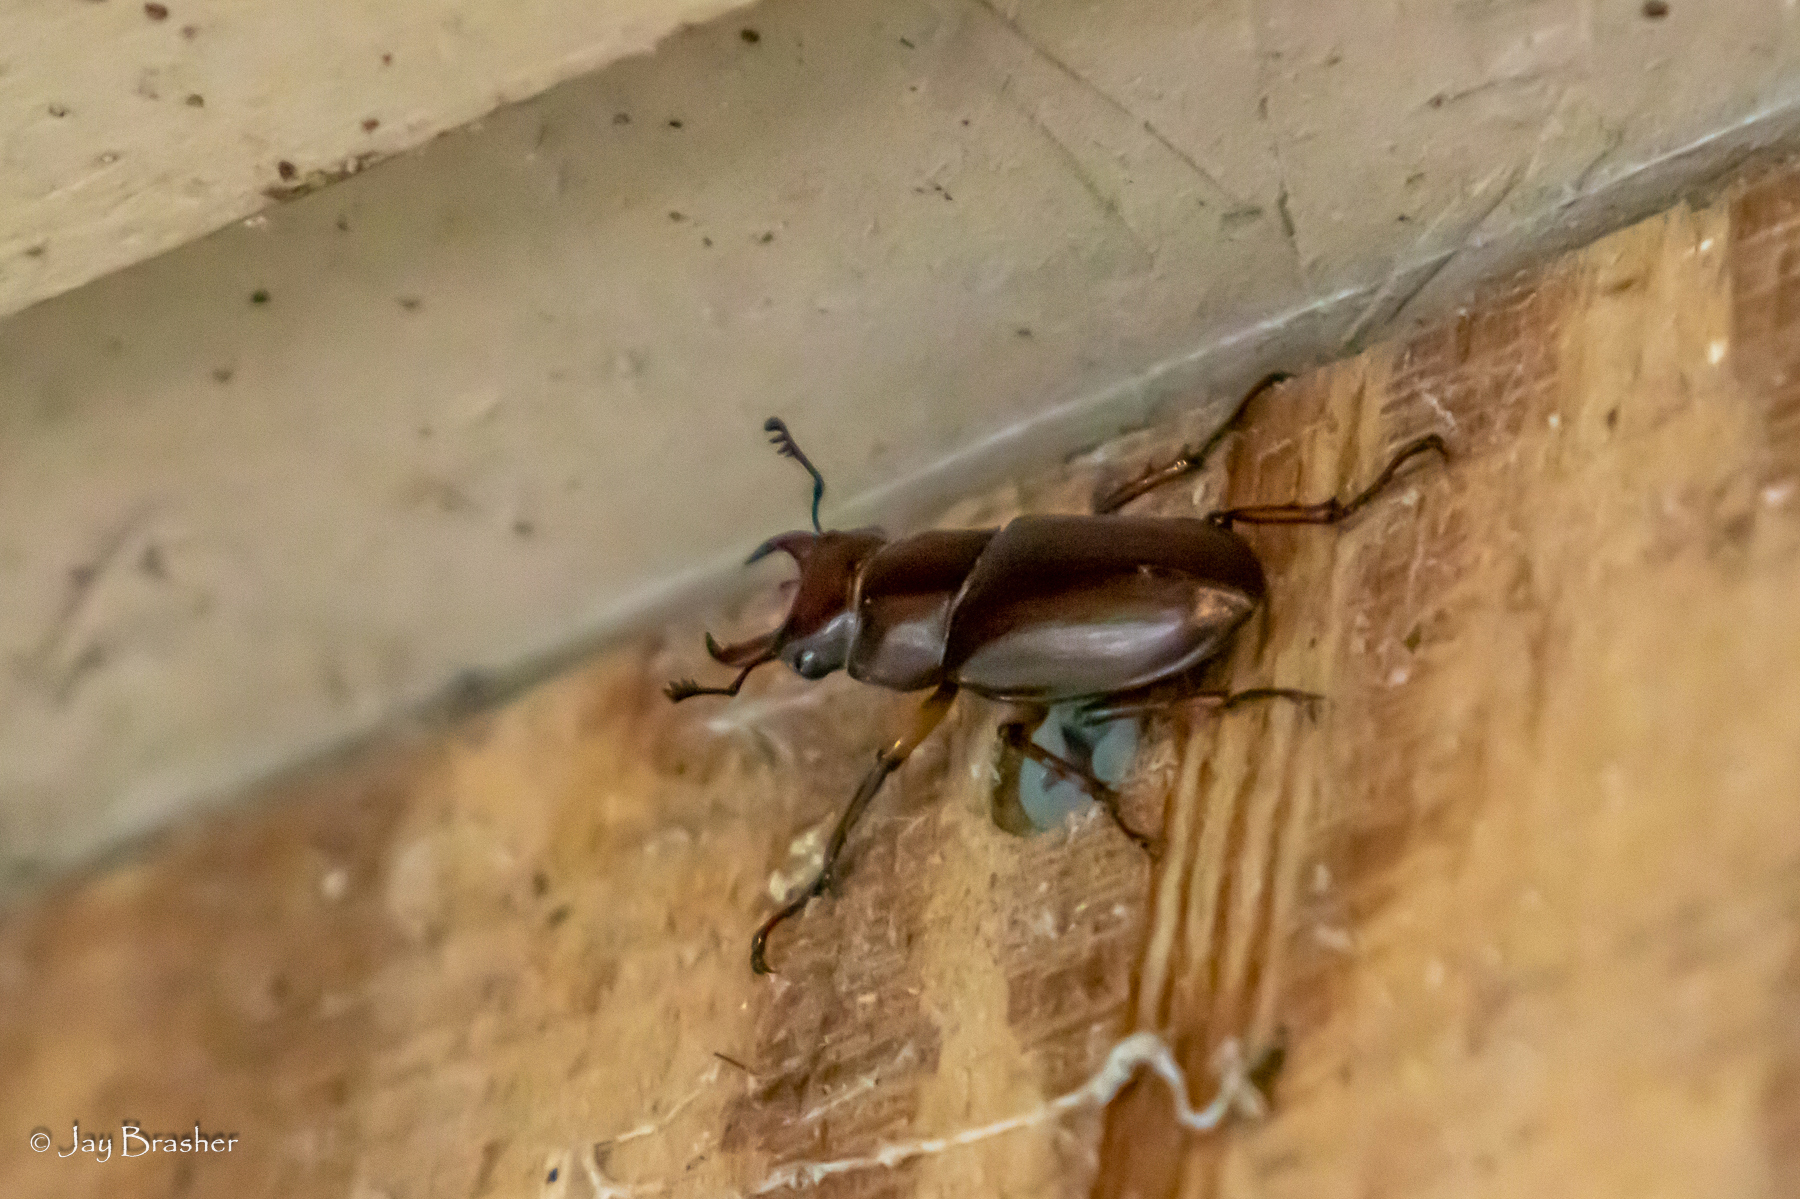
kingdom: Animalia
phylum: Arthropoda
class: Insecta
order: Coleoptera
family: Lucanidae
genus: Lucanus
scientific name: Lucanus capreolus
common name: Stag beetle
